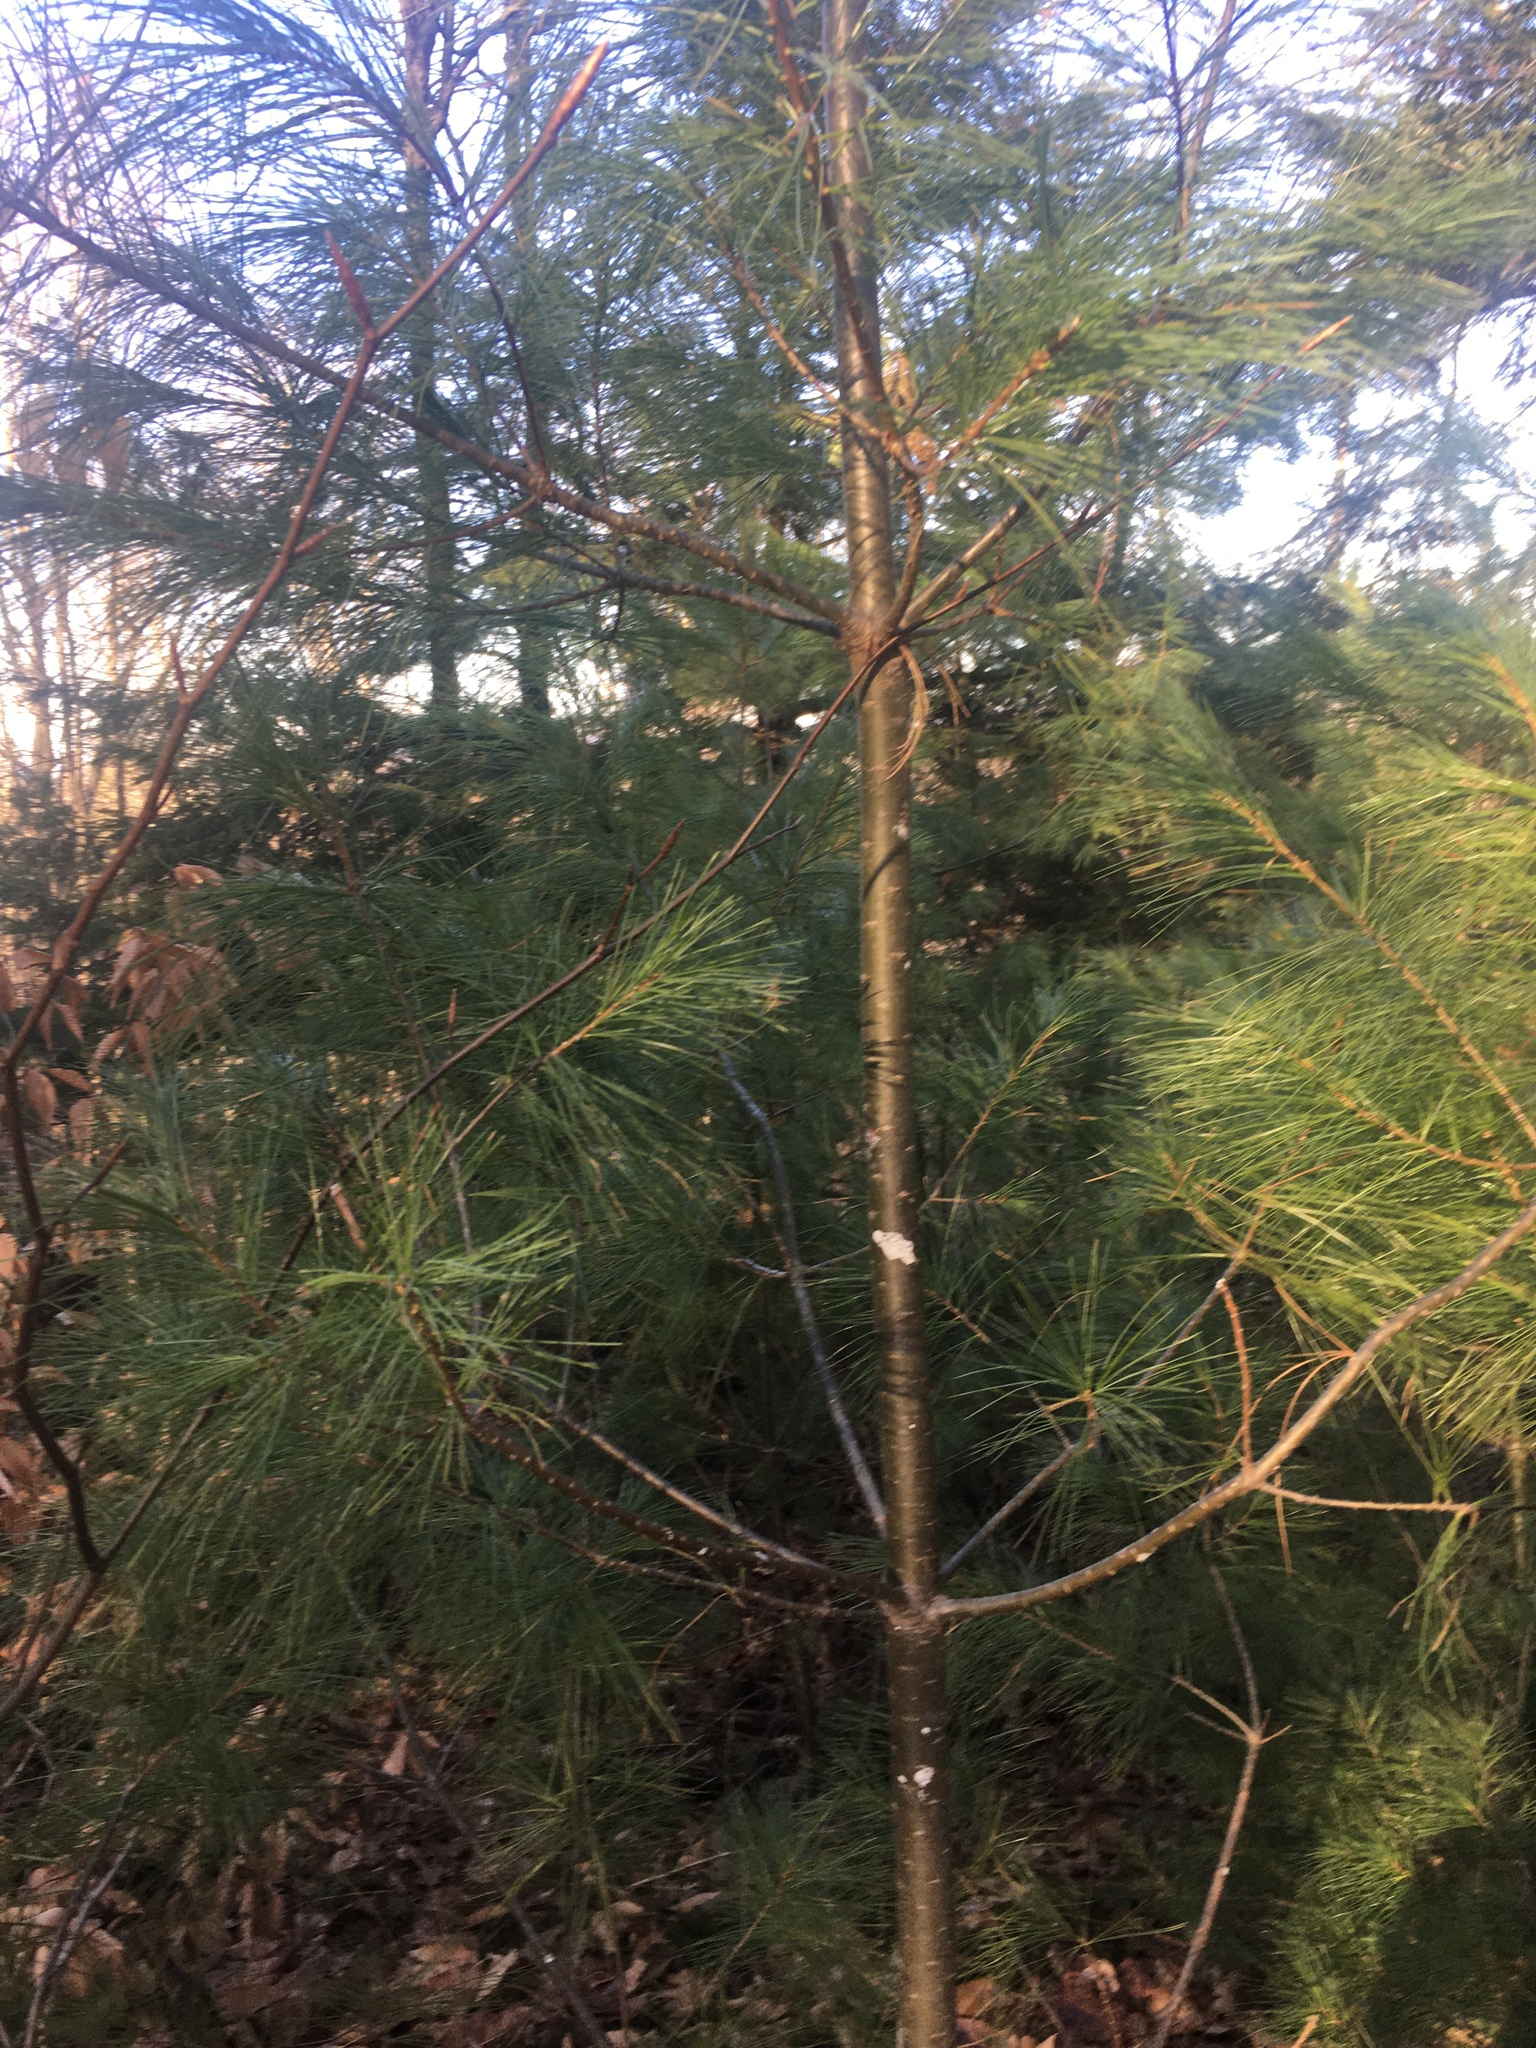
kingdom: Plantae
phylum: Tracheophyta
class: Pinopsida
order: Pinales
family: Pinaceae
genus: Pinus
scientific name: Pinus strobus
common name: Weymouth pine
